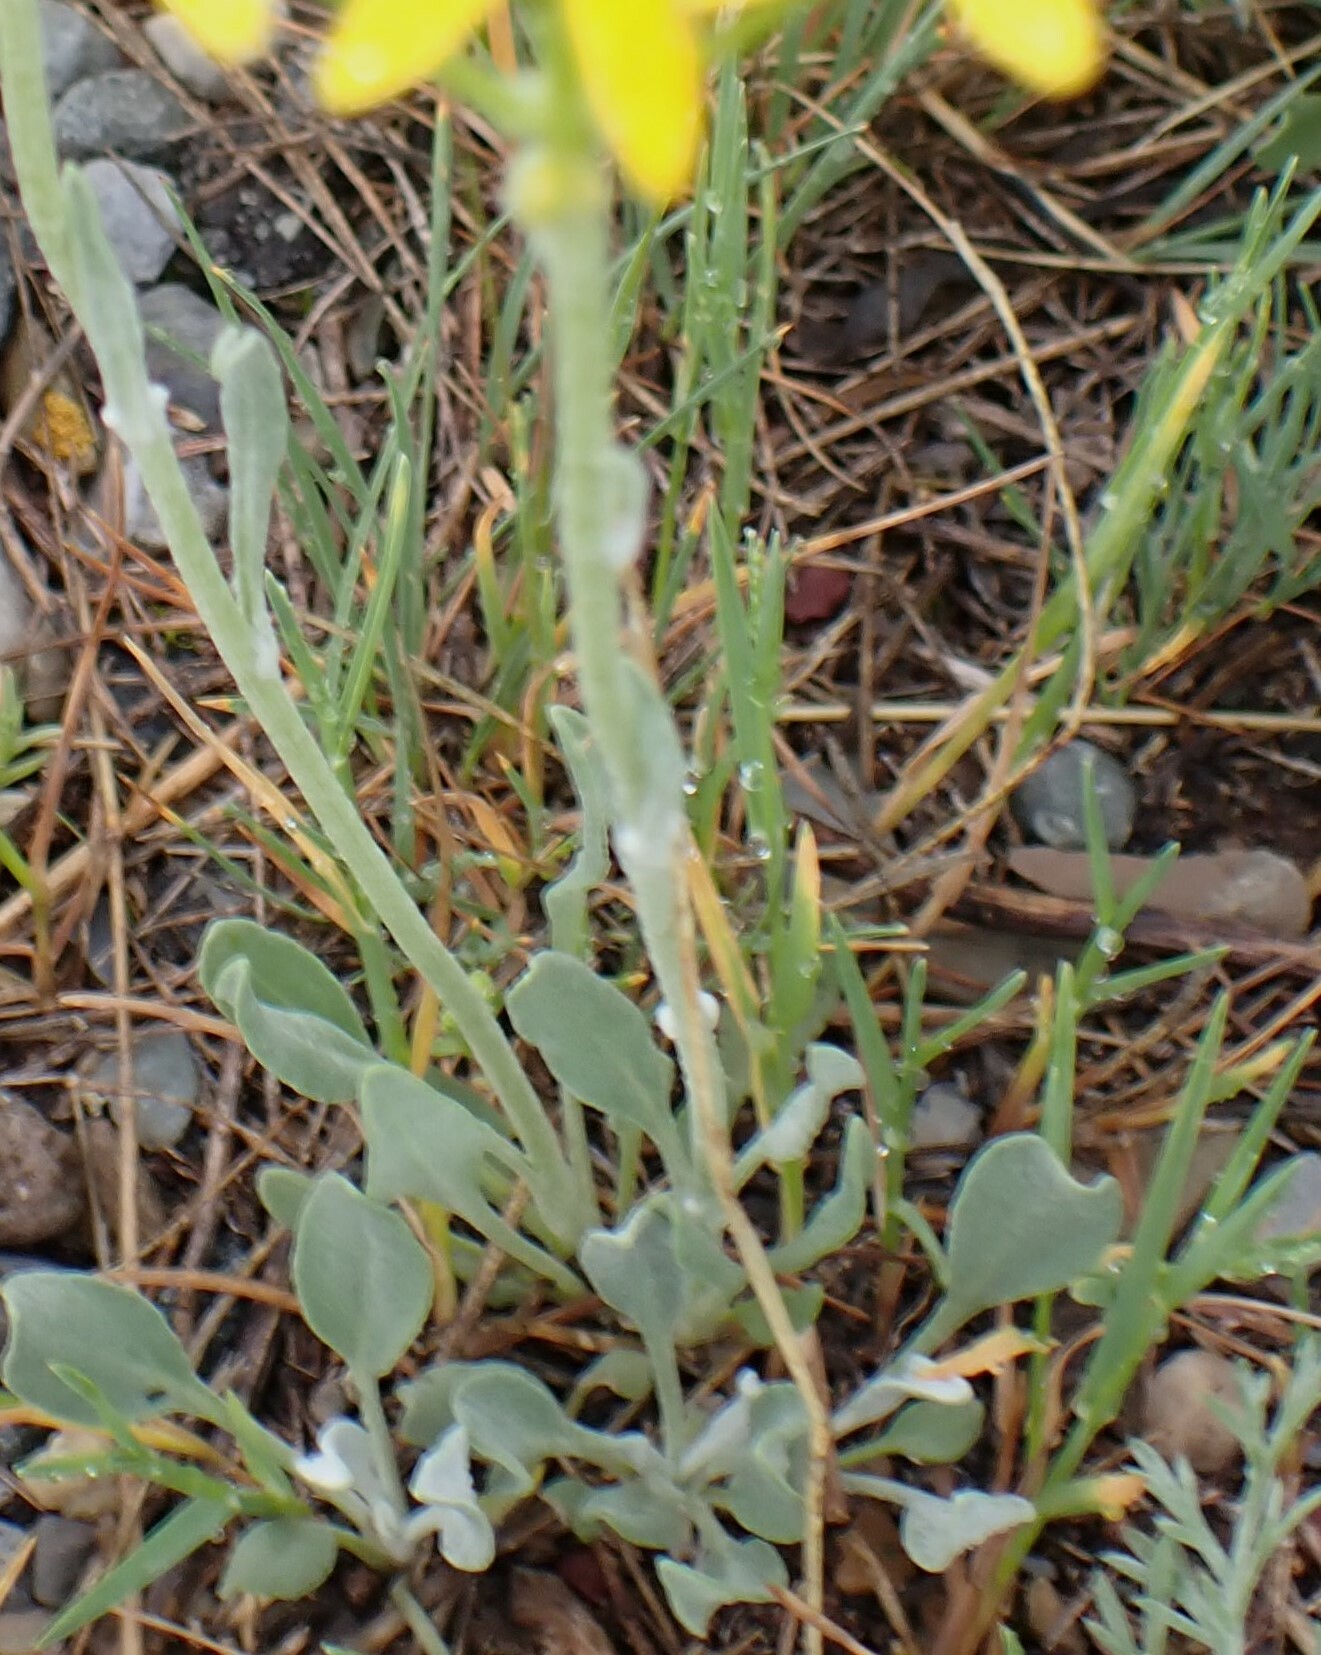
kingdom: Plantae
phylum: Tracheophyta
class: Magnoliopsida
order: Asterales
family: Asteraceae
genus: Packera
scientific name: Packera cana
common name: Woolly groundsel
